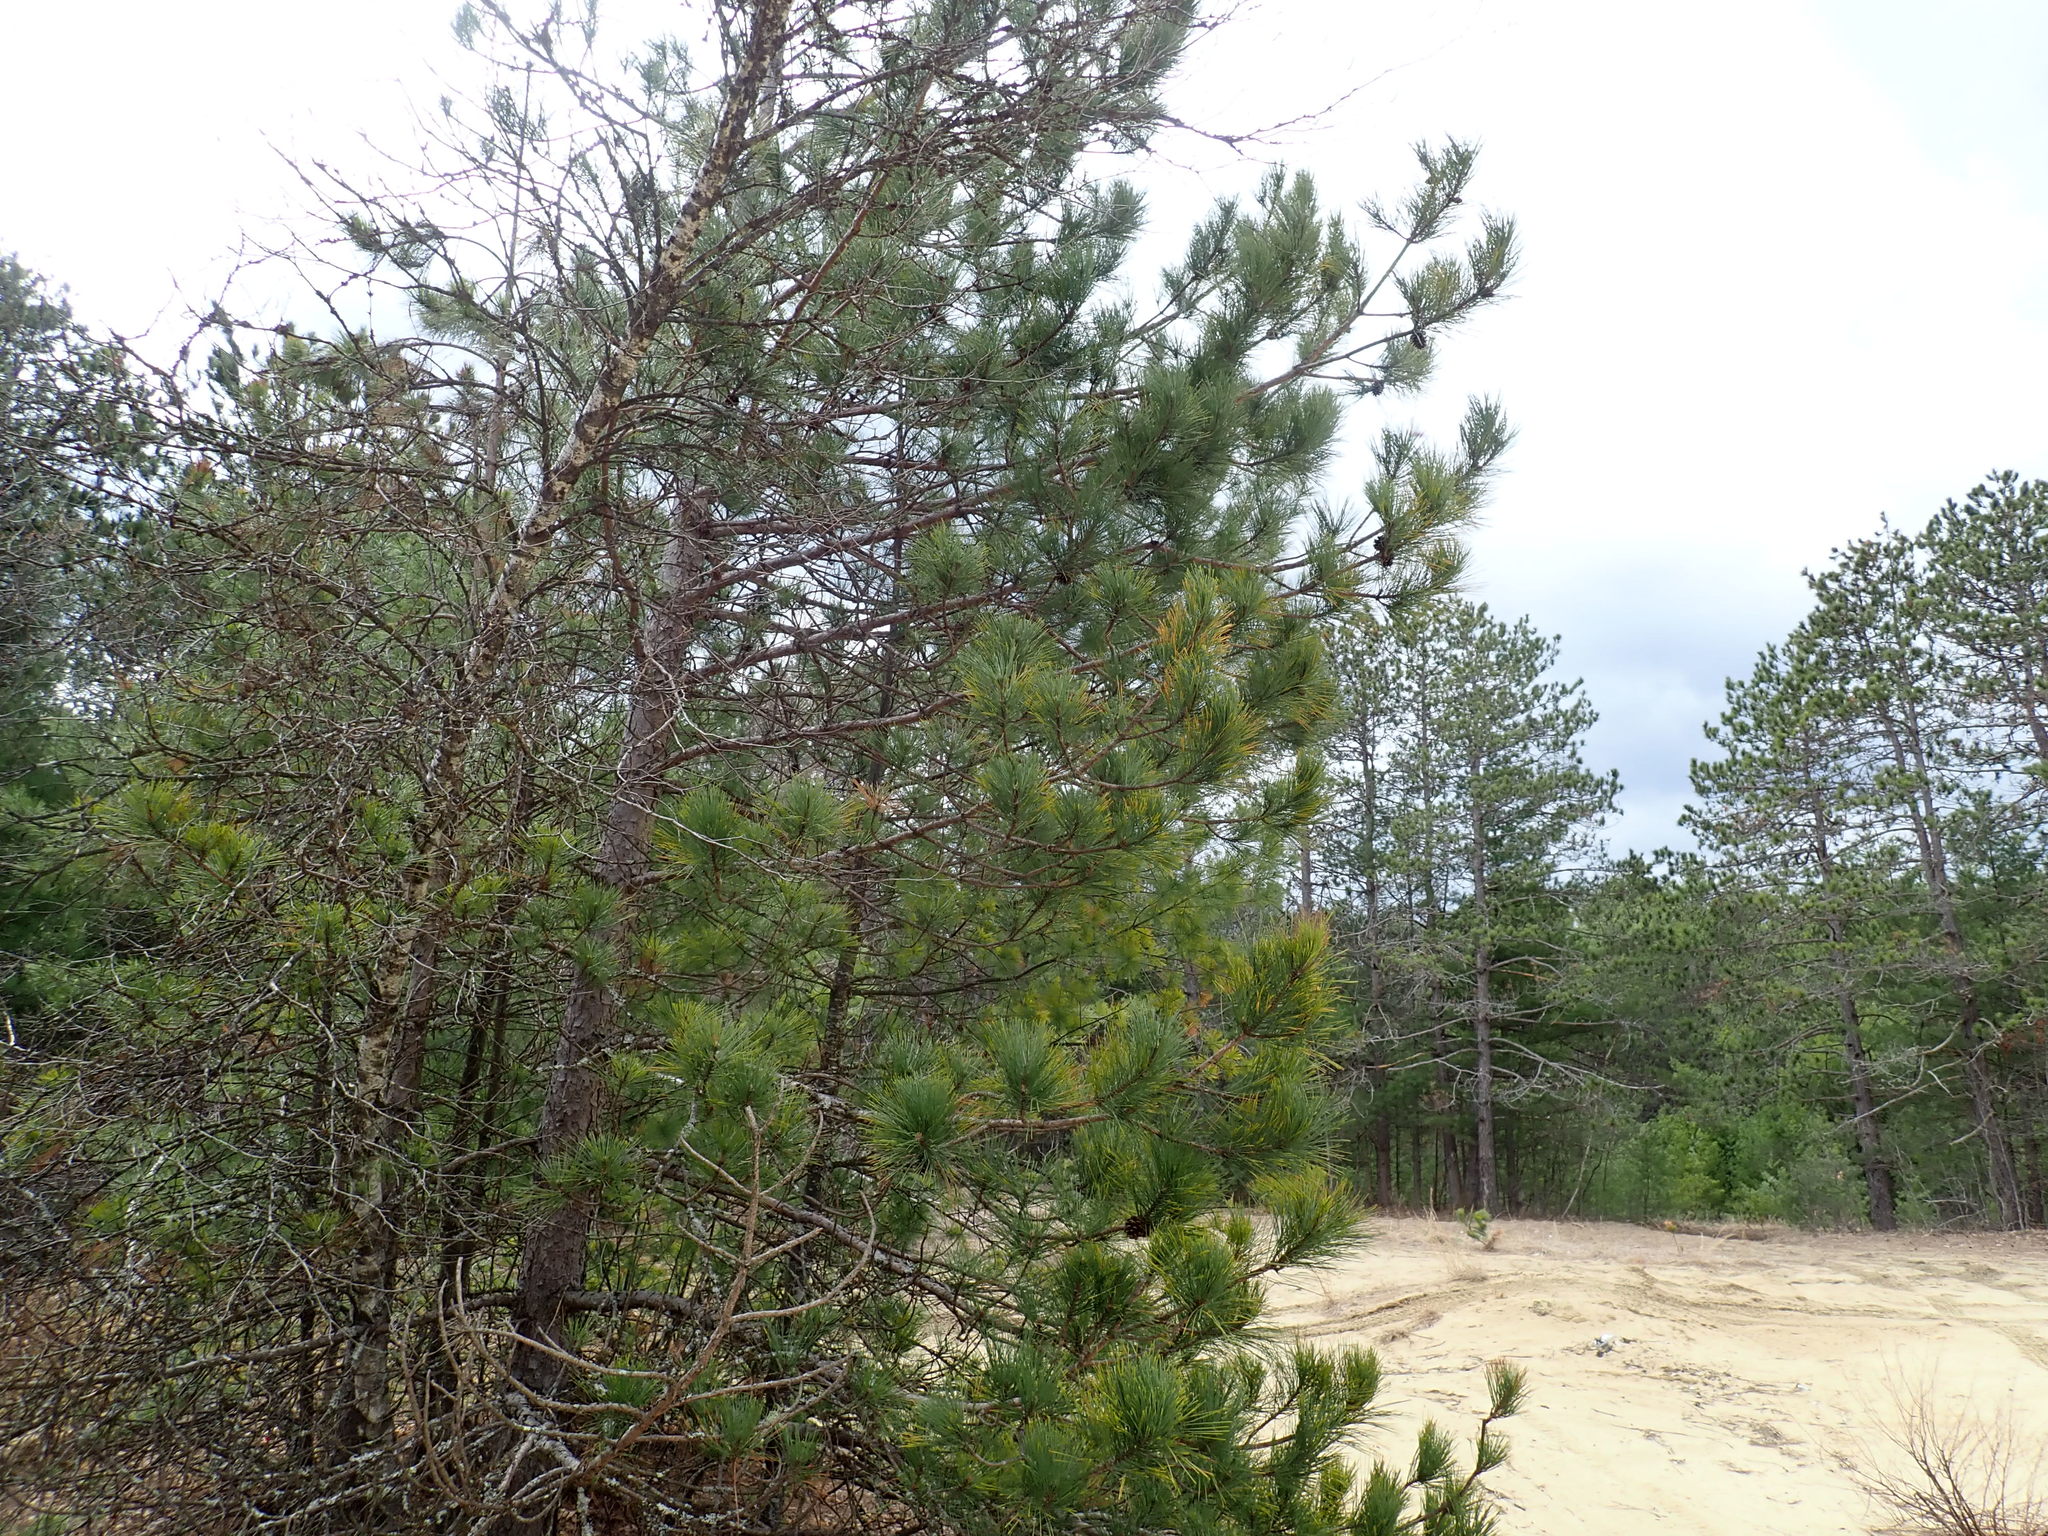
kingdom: Plantae
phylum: Tracheophyta
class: Pinopsida
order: Pinales
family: Pinaceae
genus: Pinus
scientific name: Pinus resinosa
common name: Norway pine
